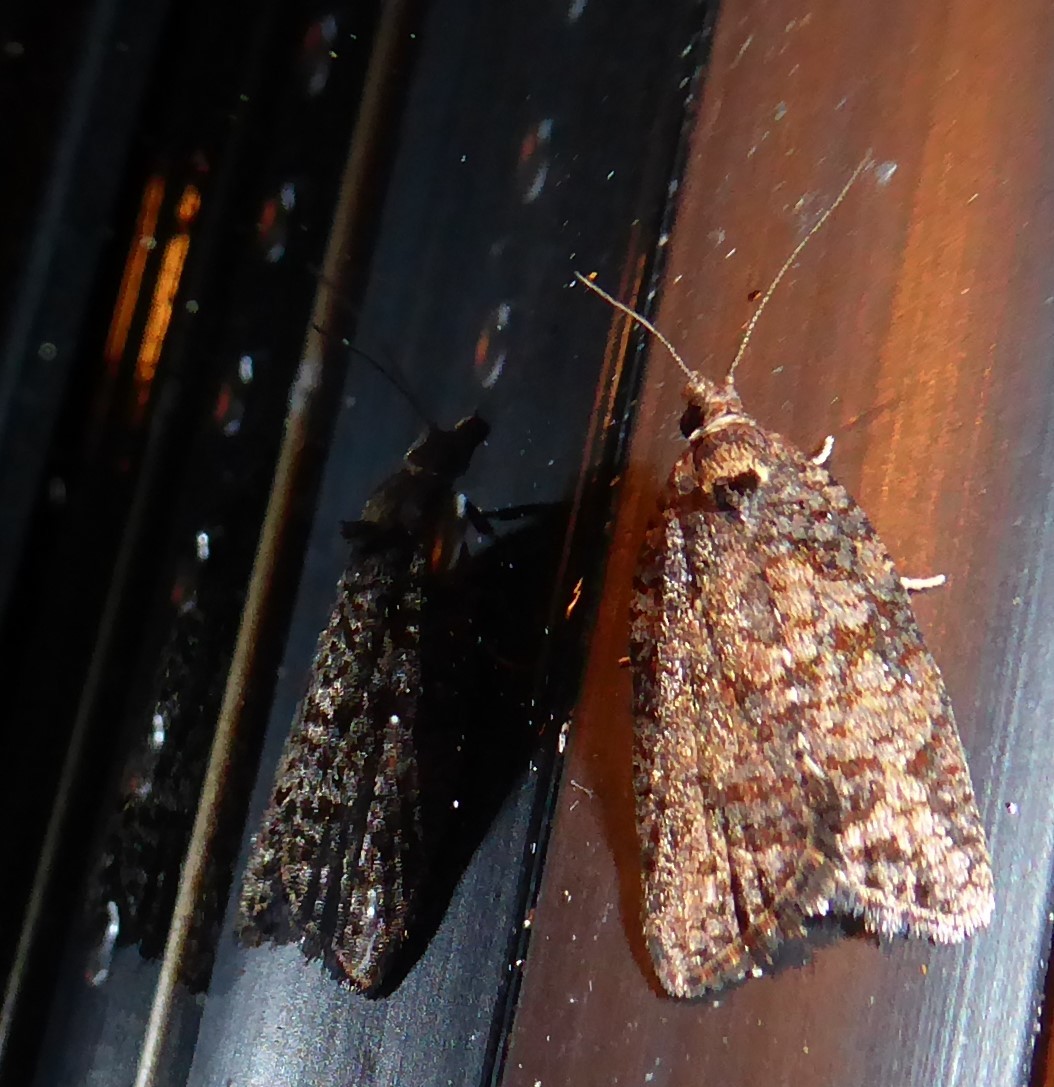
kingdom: Animalia
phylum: Arthropoda
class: Insecta
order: Lepidoptera
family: Tortricidae
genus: Capua
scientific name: Capua semiferana
